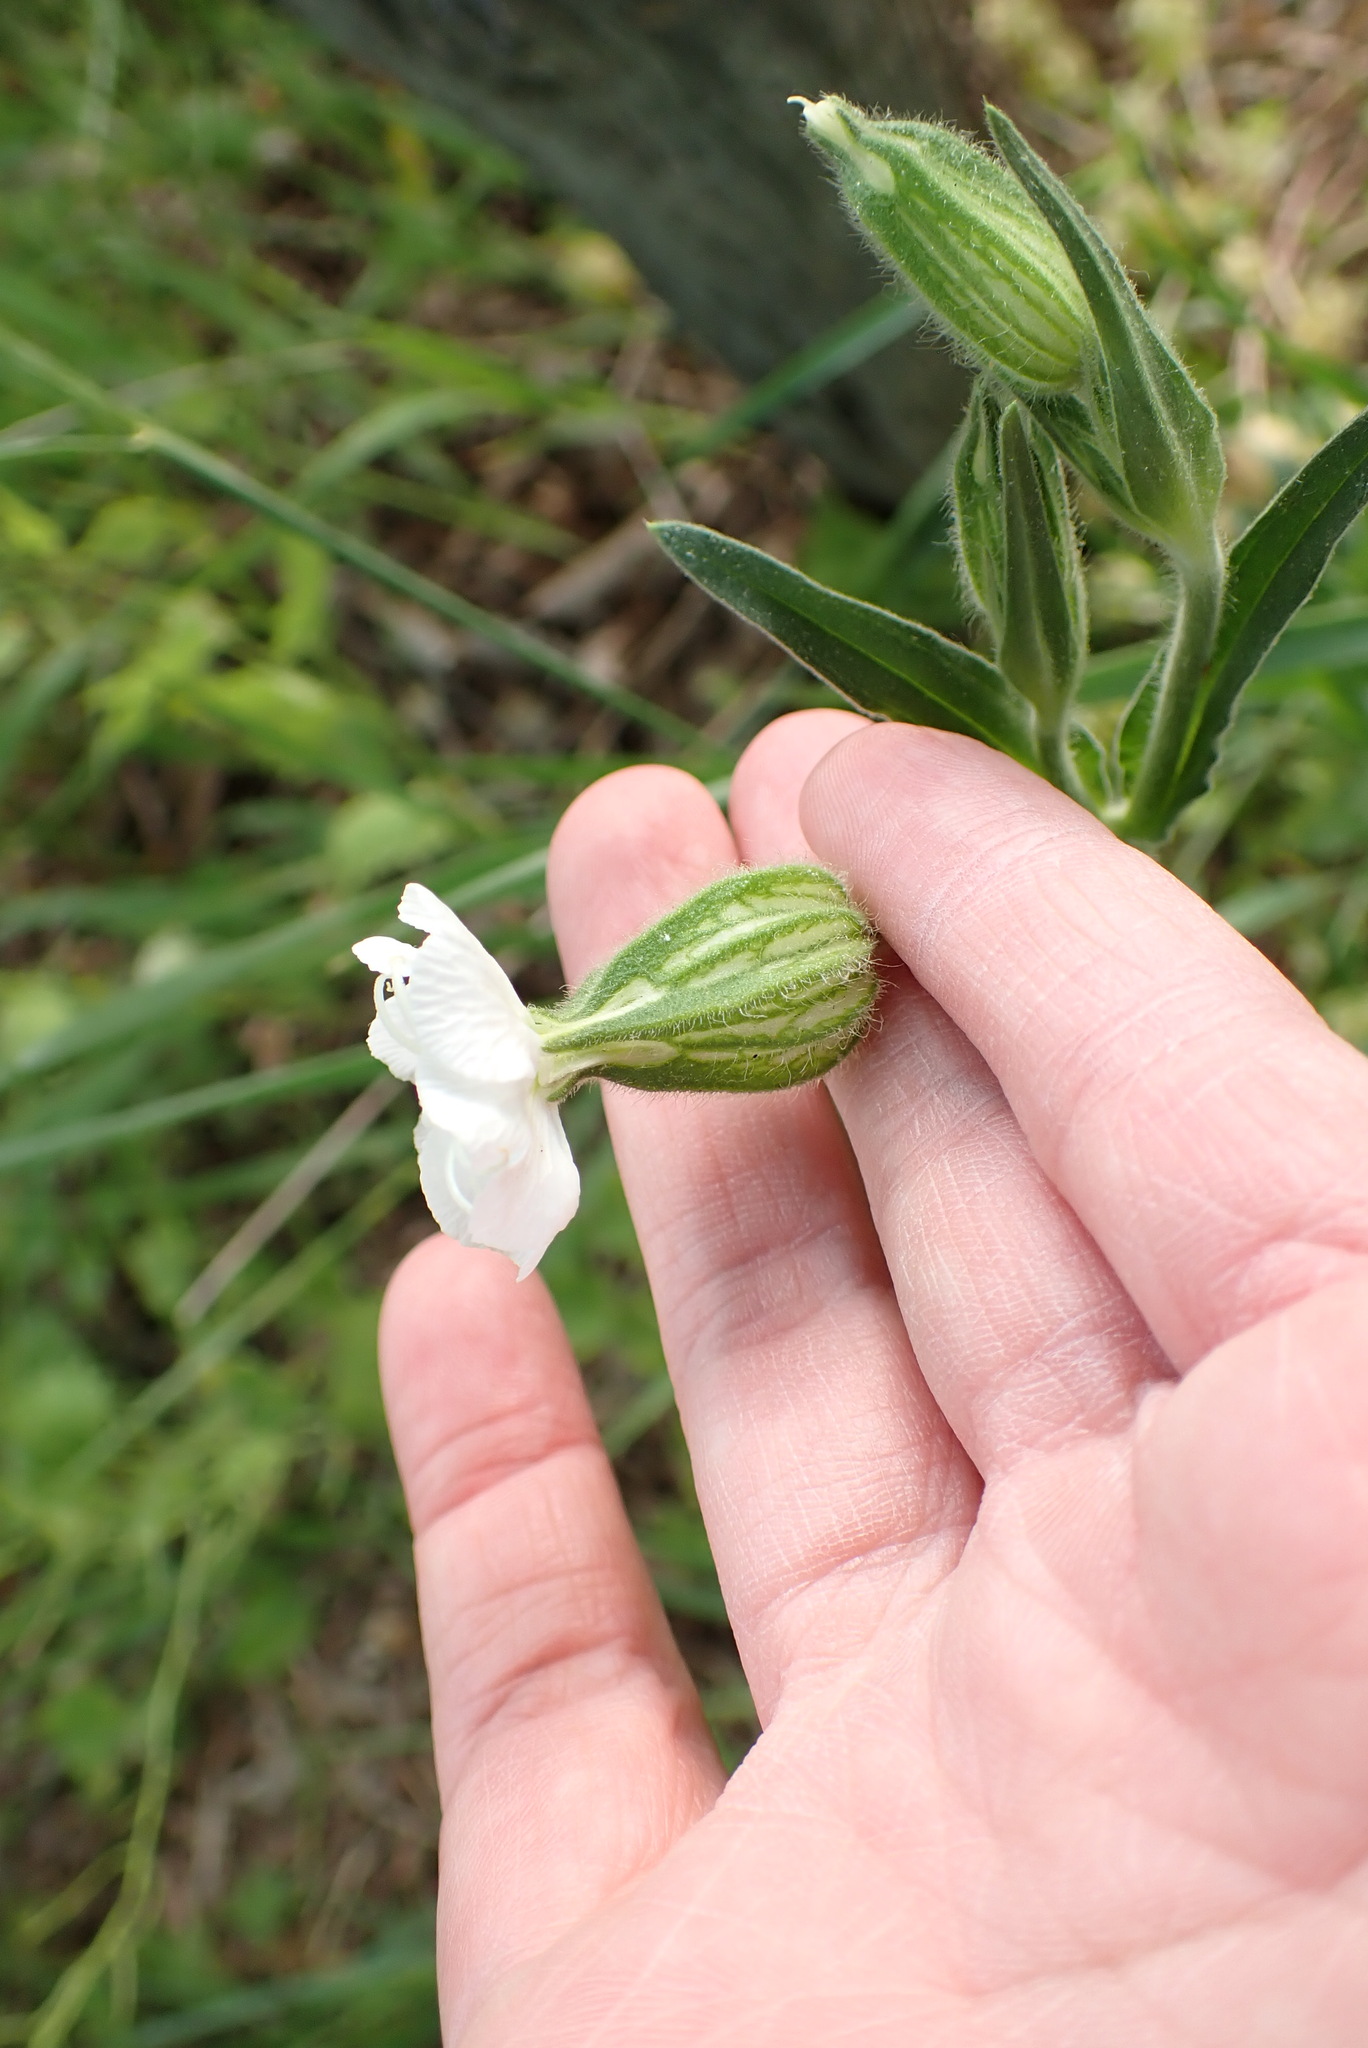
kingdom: Plantae
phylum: Tracheophyta
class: Magnoliopsida
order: Caryophyllales
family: Caryophyllaceae
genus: Silene
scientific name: Silene latifolia
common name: White campion
